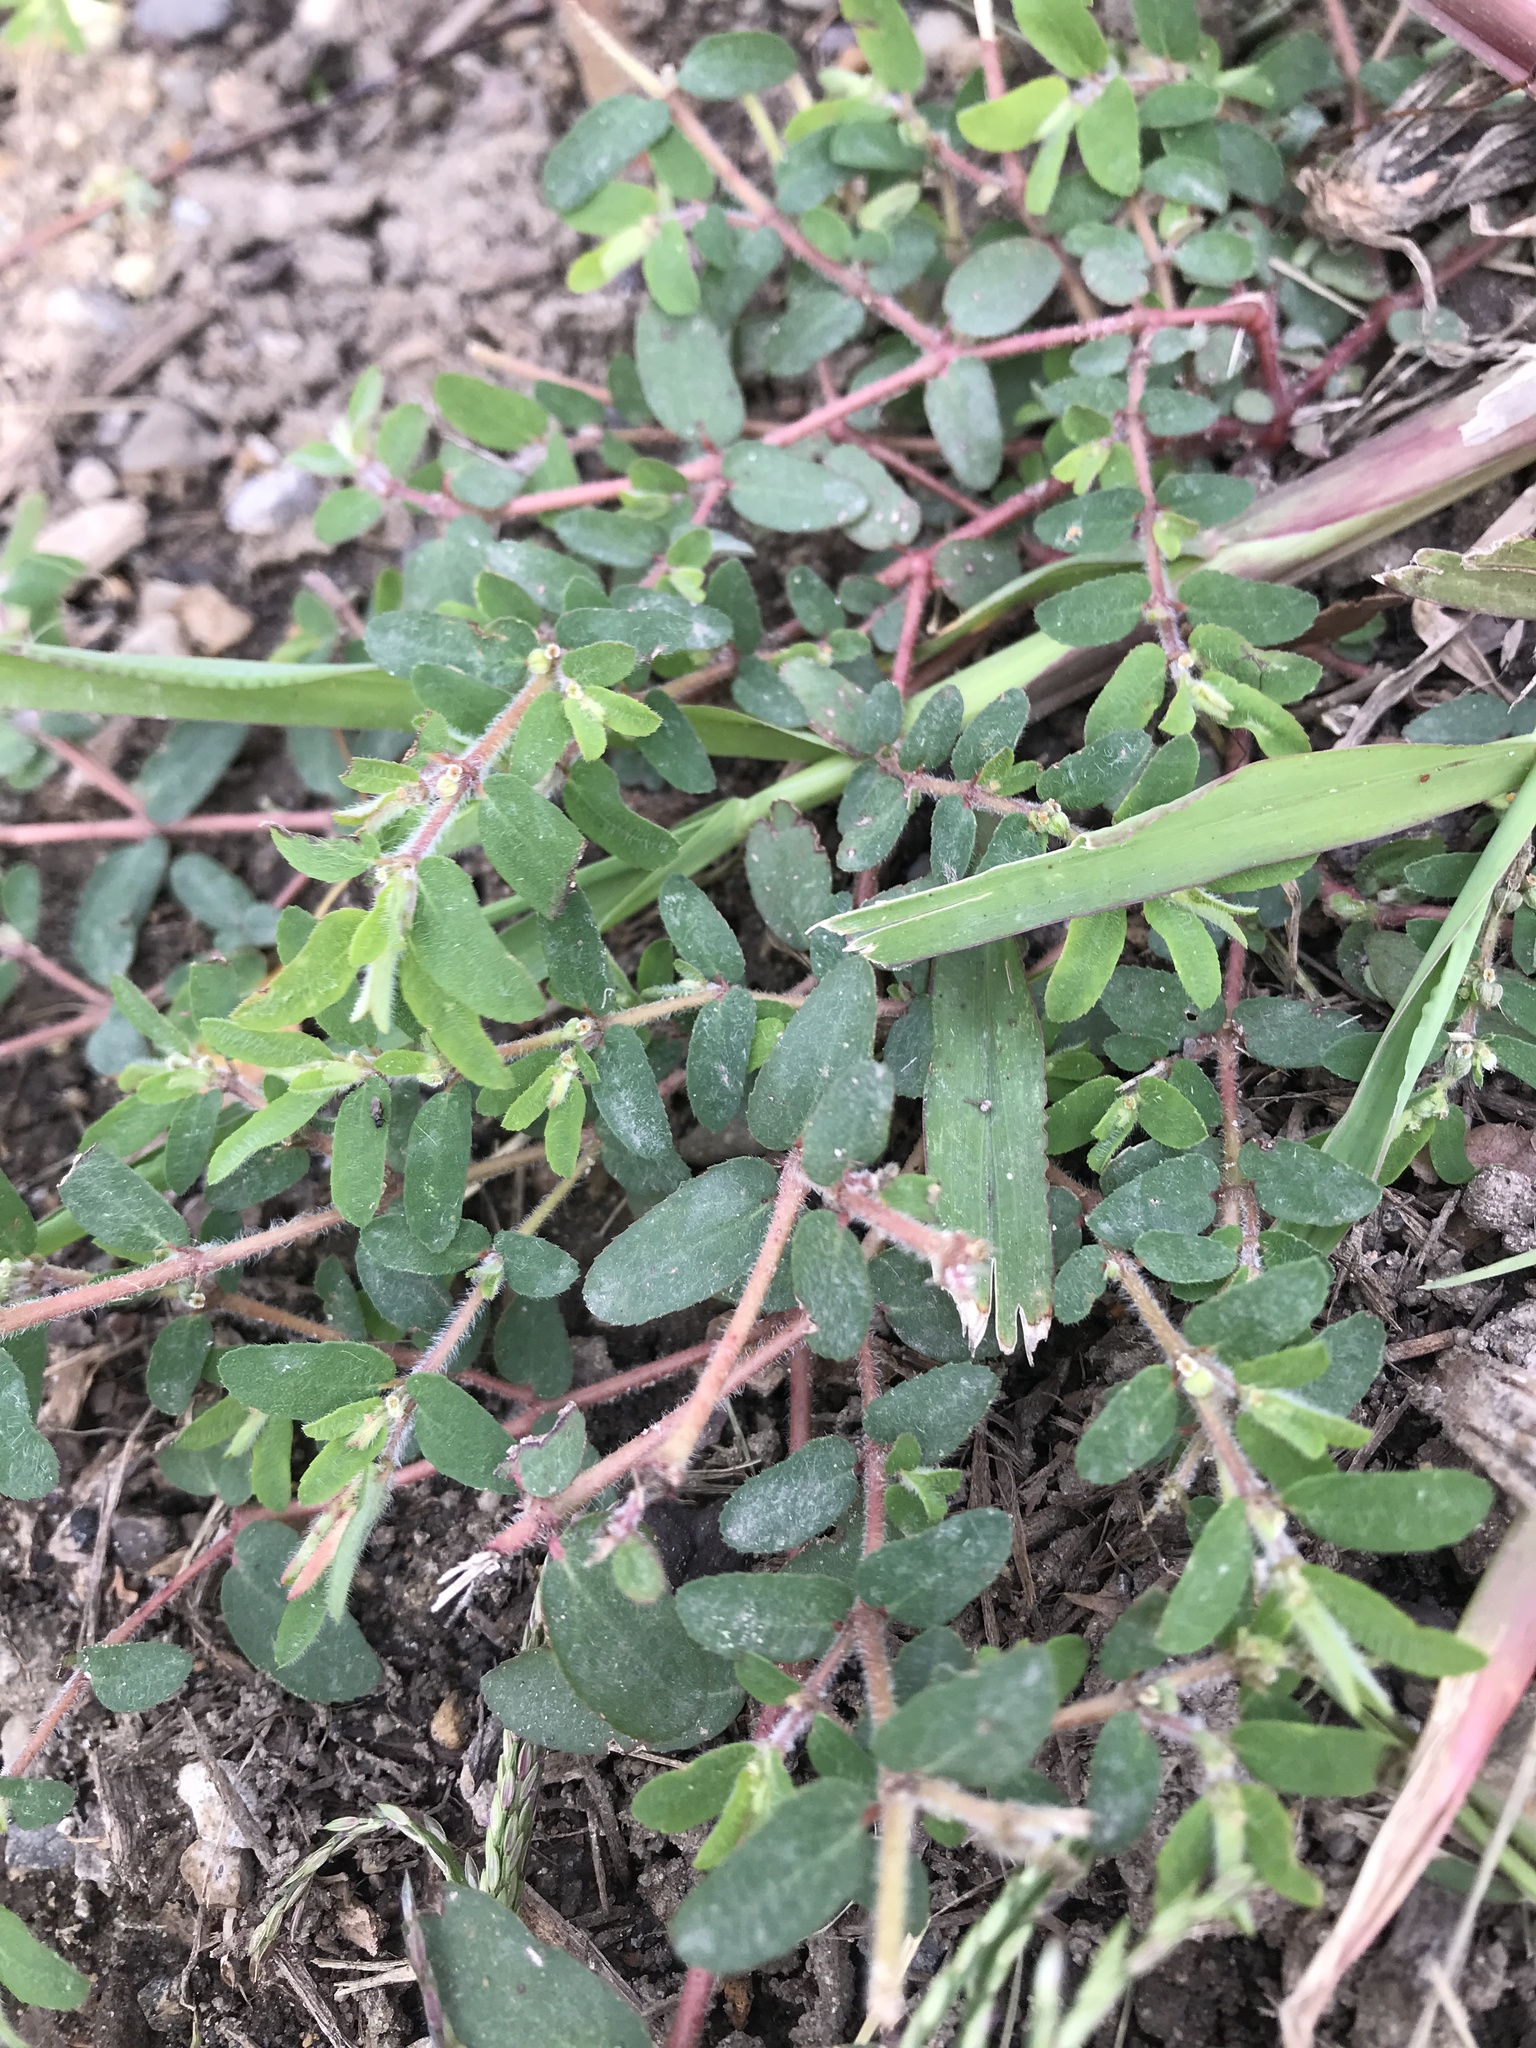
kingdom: Plantae
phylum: Tracheophyta
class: Magnoliopsida
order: Malpighiales
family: Euphorbiaceae
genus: Euphorbia
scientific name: Euphorbia maculata
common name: Spotted spurge
